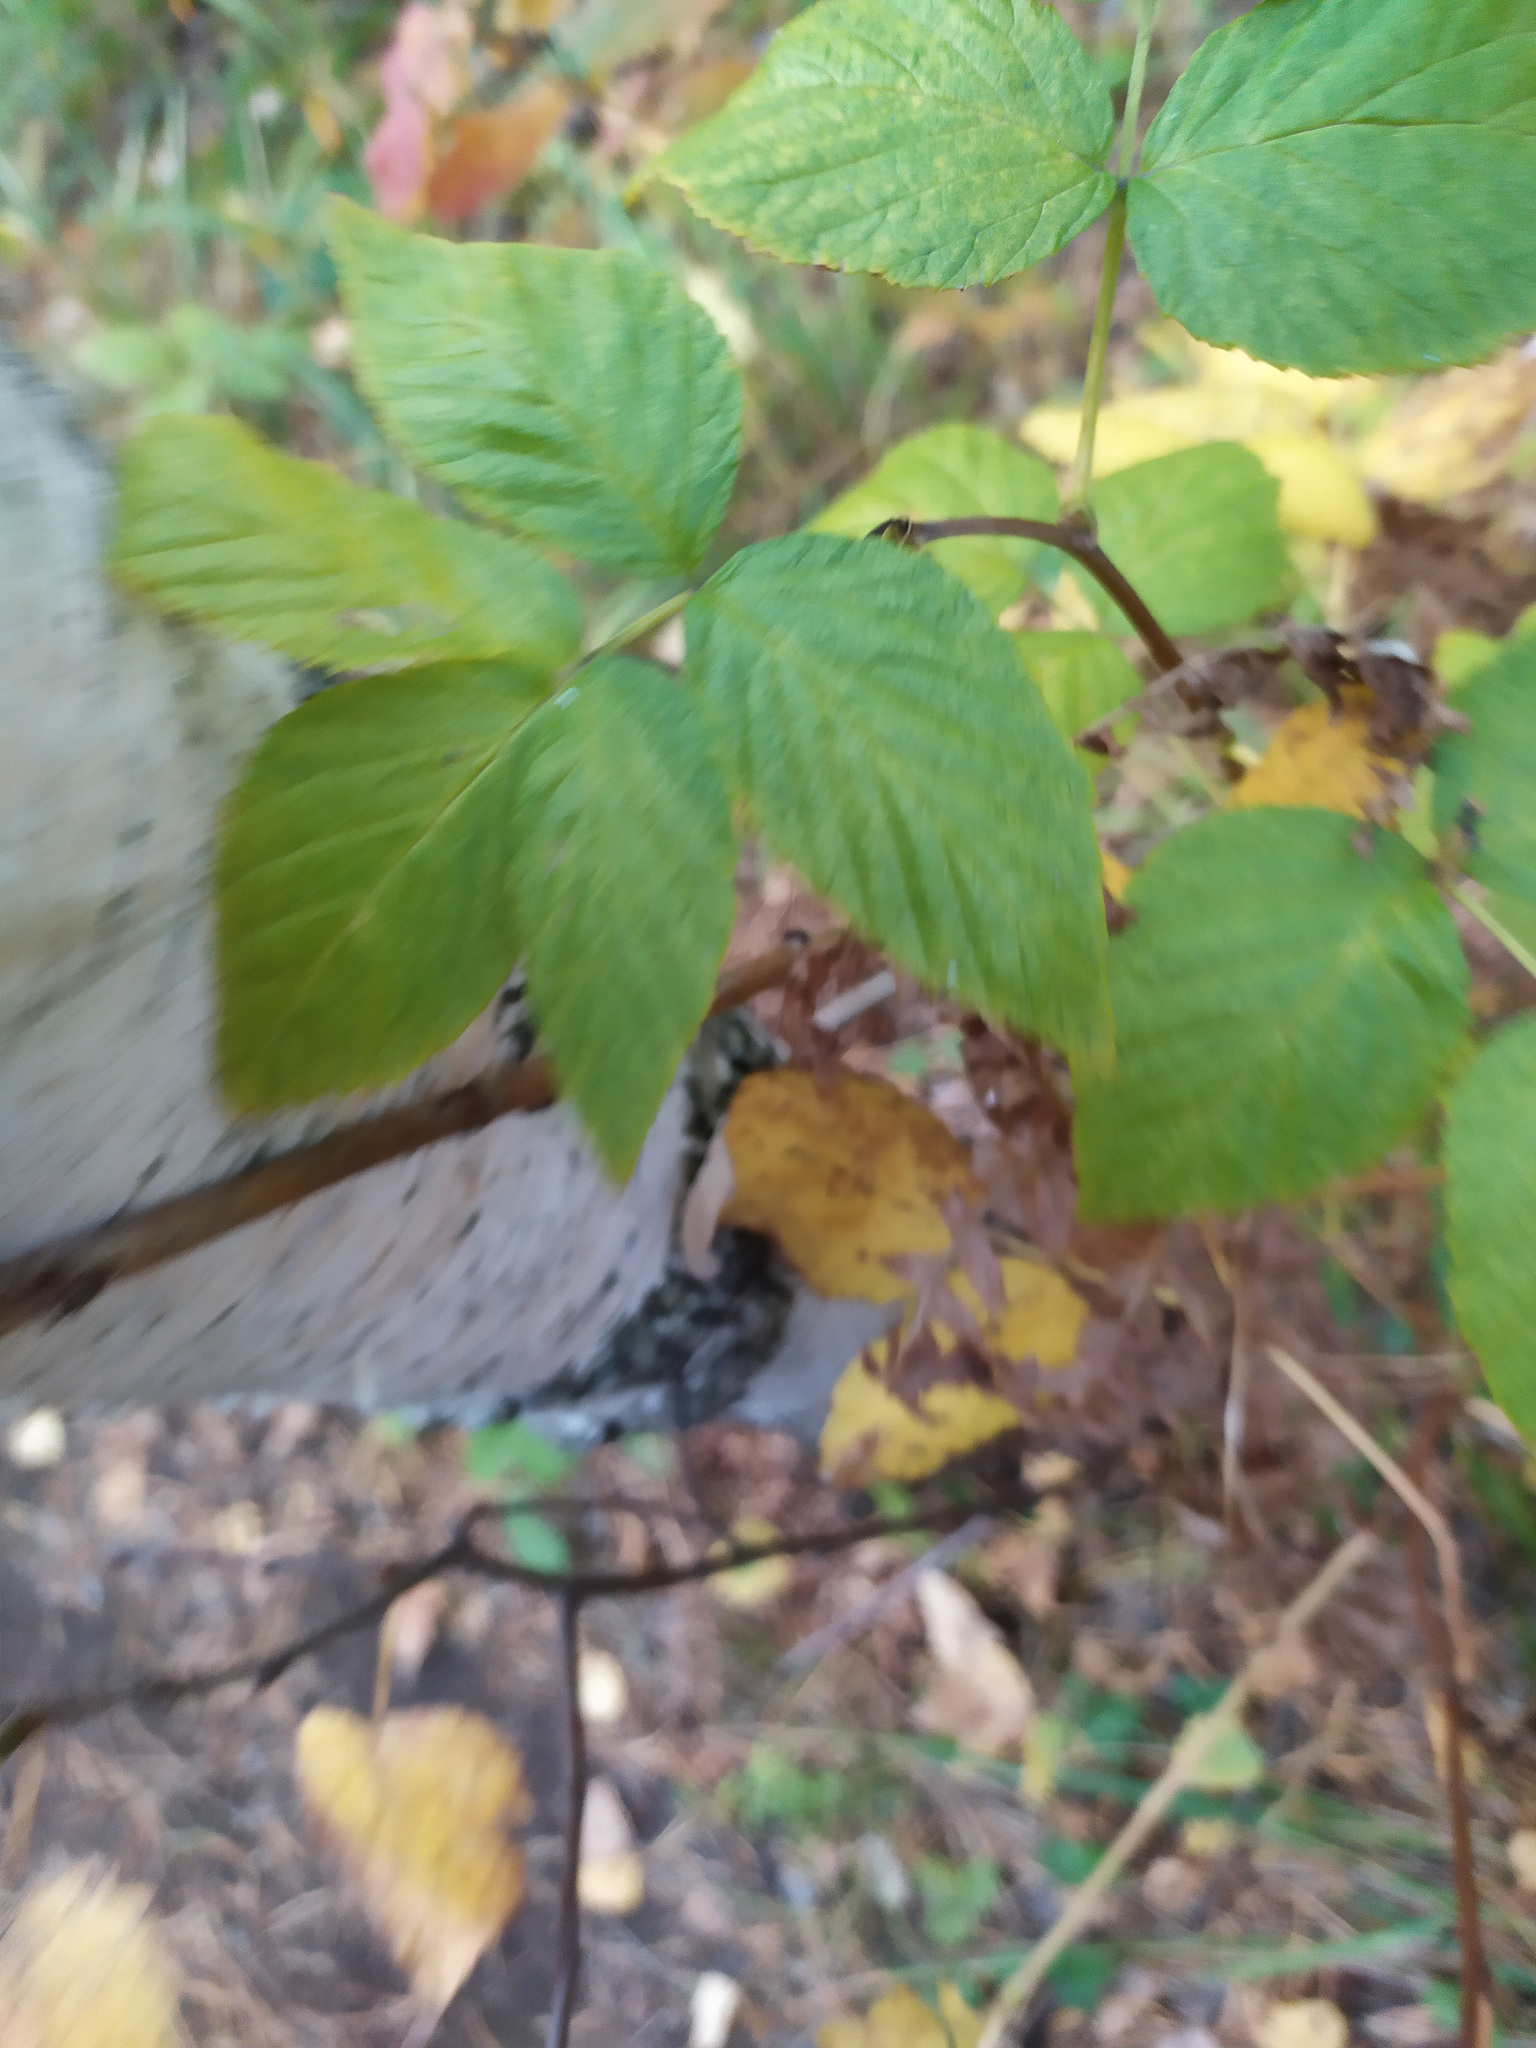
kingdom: Plantae
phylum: Tracheophyta
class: Magnoliopsida
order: Rosales
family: Rosaceae
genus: Rubus
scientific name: Rubus idaeus
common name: Raspberry
